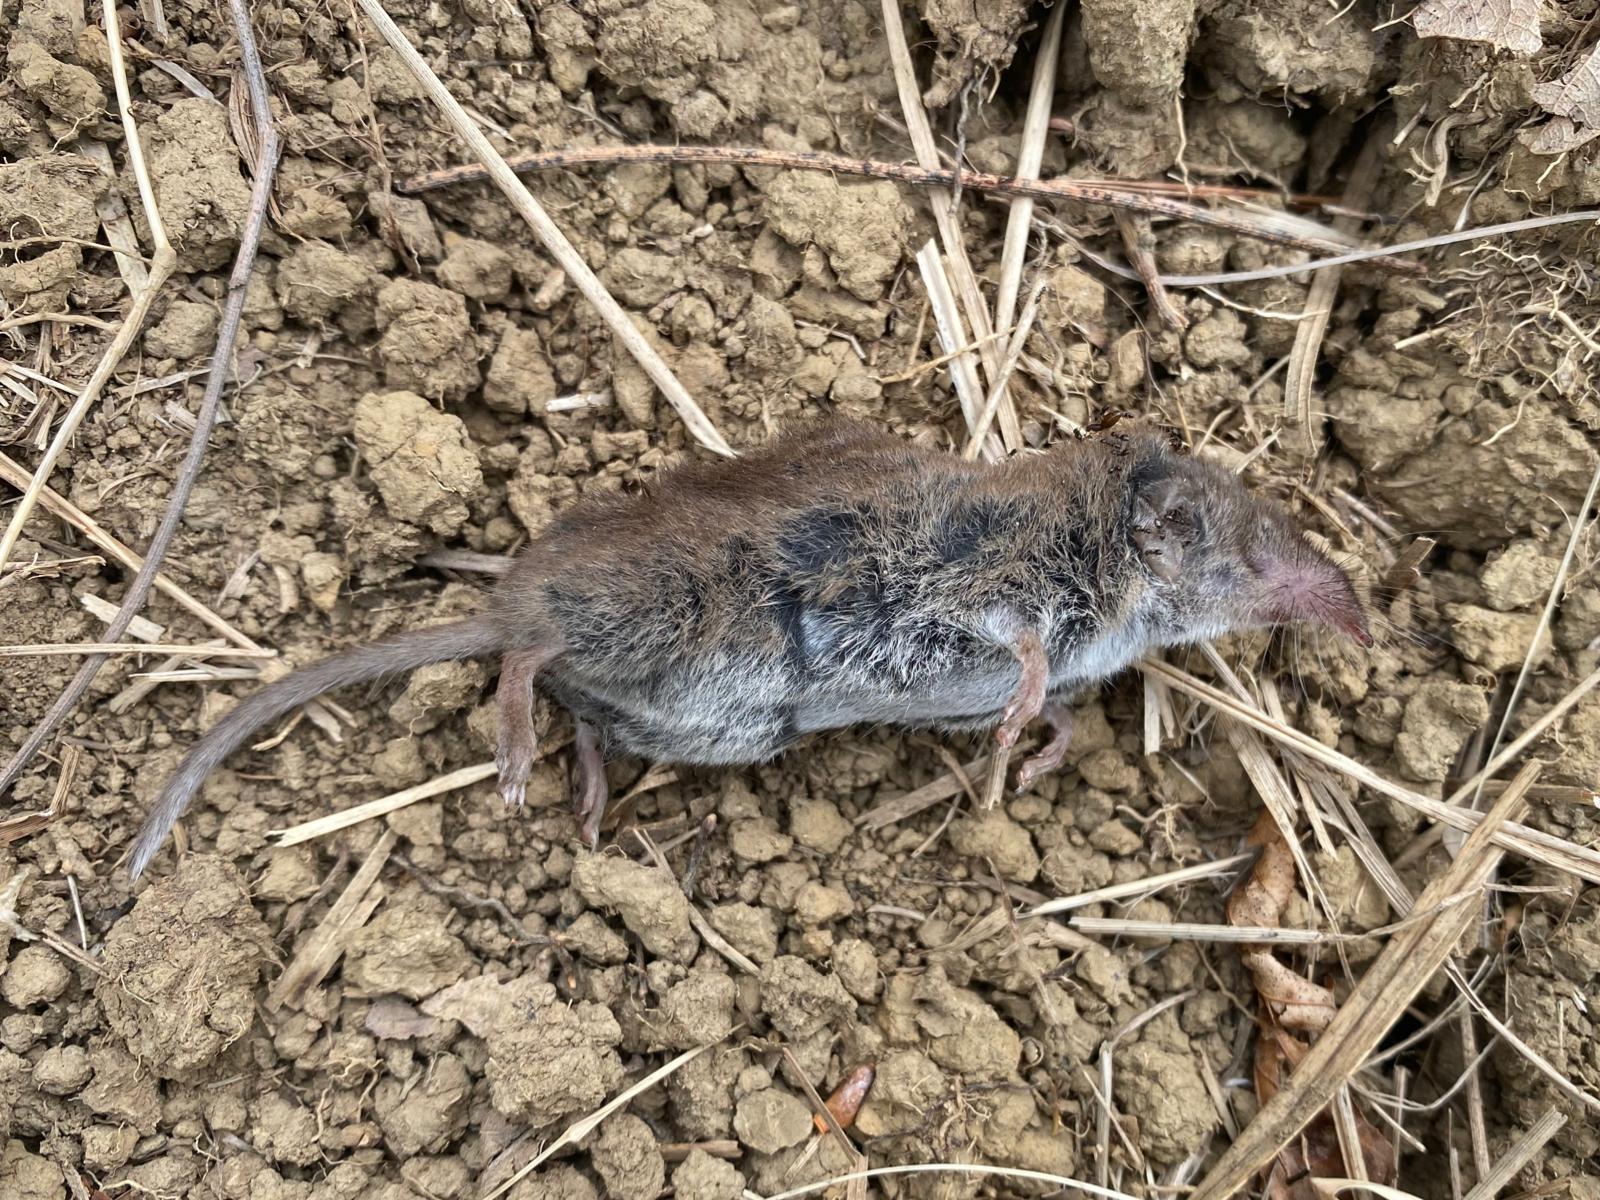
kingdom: Animalia
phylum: Chordata
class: Mammalia
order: Soricomorpha
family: Soricidae
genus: Crocidura
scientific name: Crocidura suaveolens
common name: Lesser white-toothed shrew
